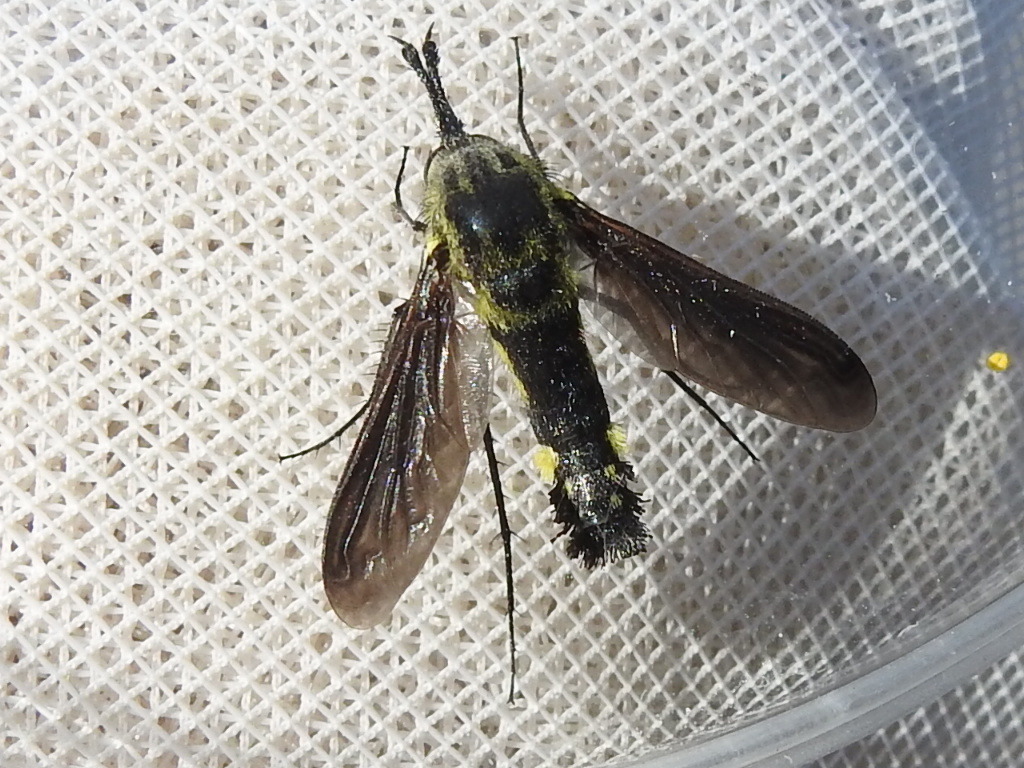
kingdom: Animalia
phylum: Arthropoda
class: Insecta
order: Diptera
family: Bombyliidae
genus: Lepidophora
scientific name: Lepidophora lepidocera
